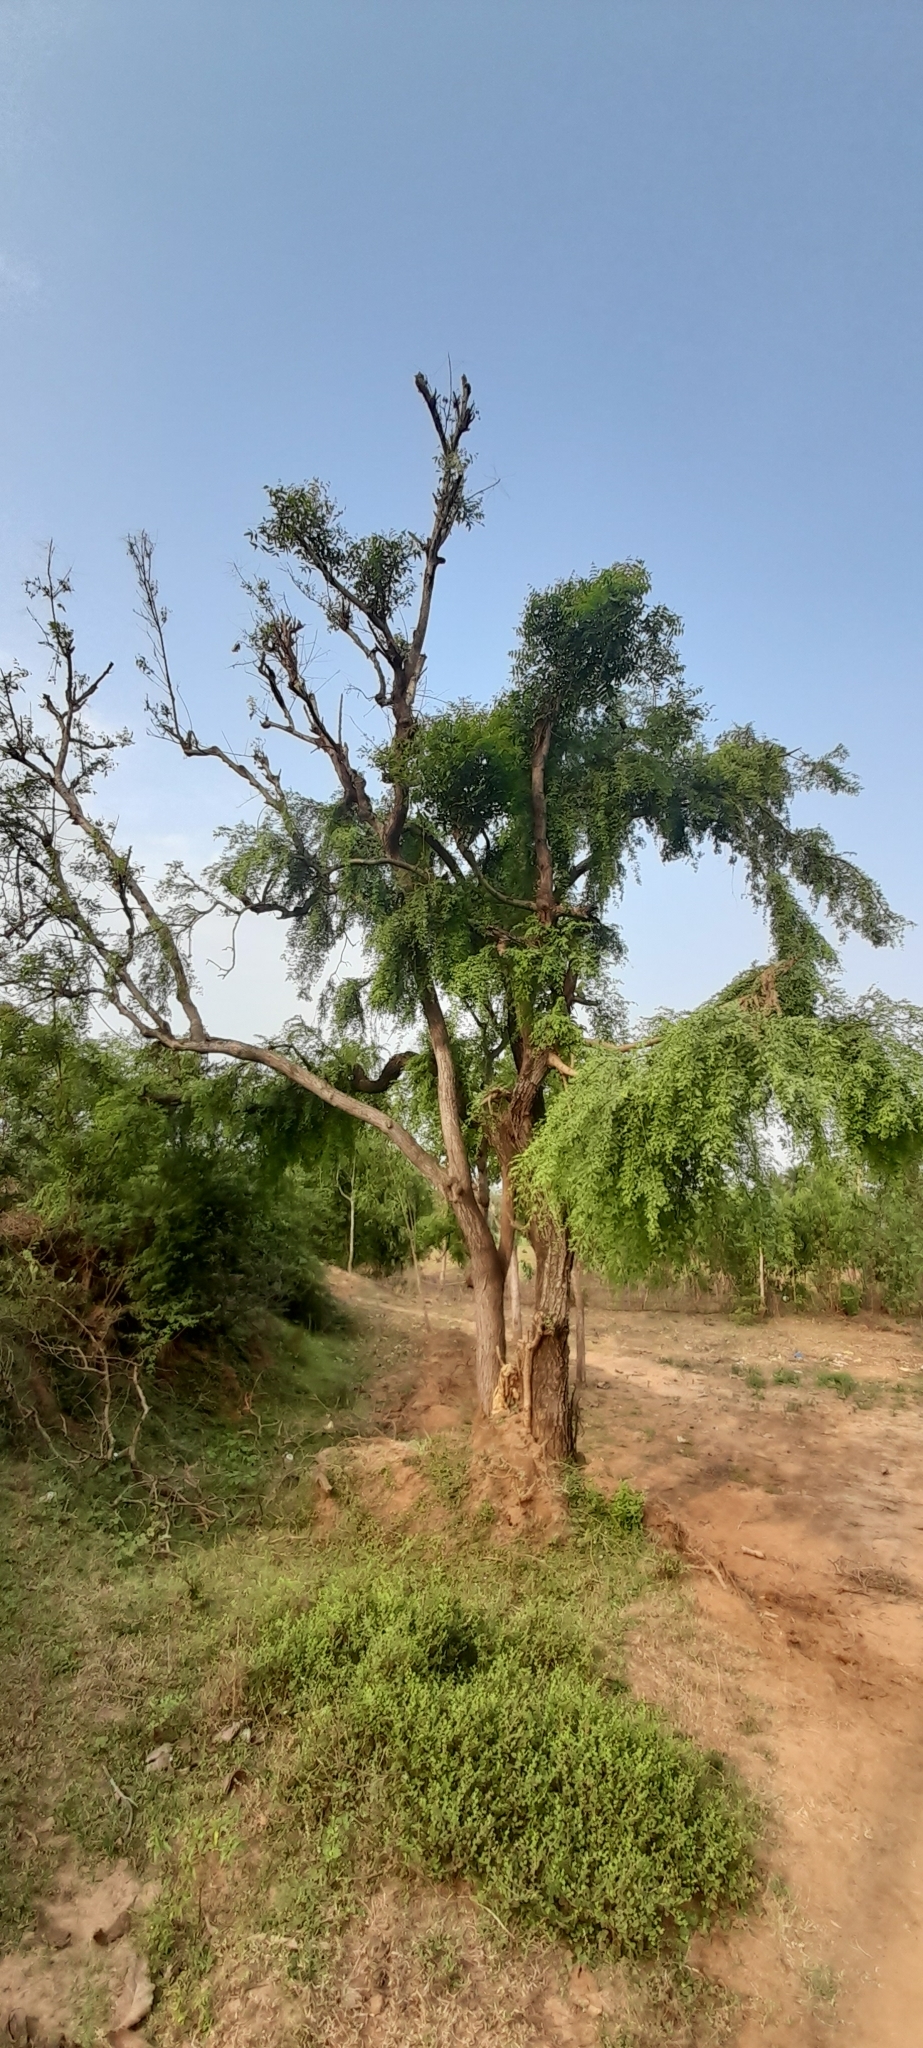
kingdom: Plantae
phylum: Tracheophyta
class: Magnoliopsida
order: Fabales
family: Fabaceae
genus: Prosopis
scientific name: Prosopis cineraria
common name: Jandi
